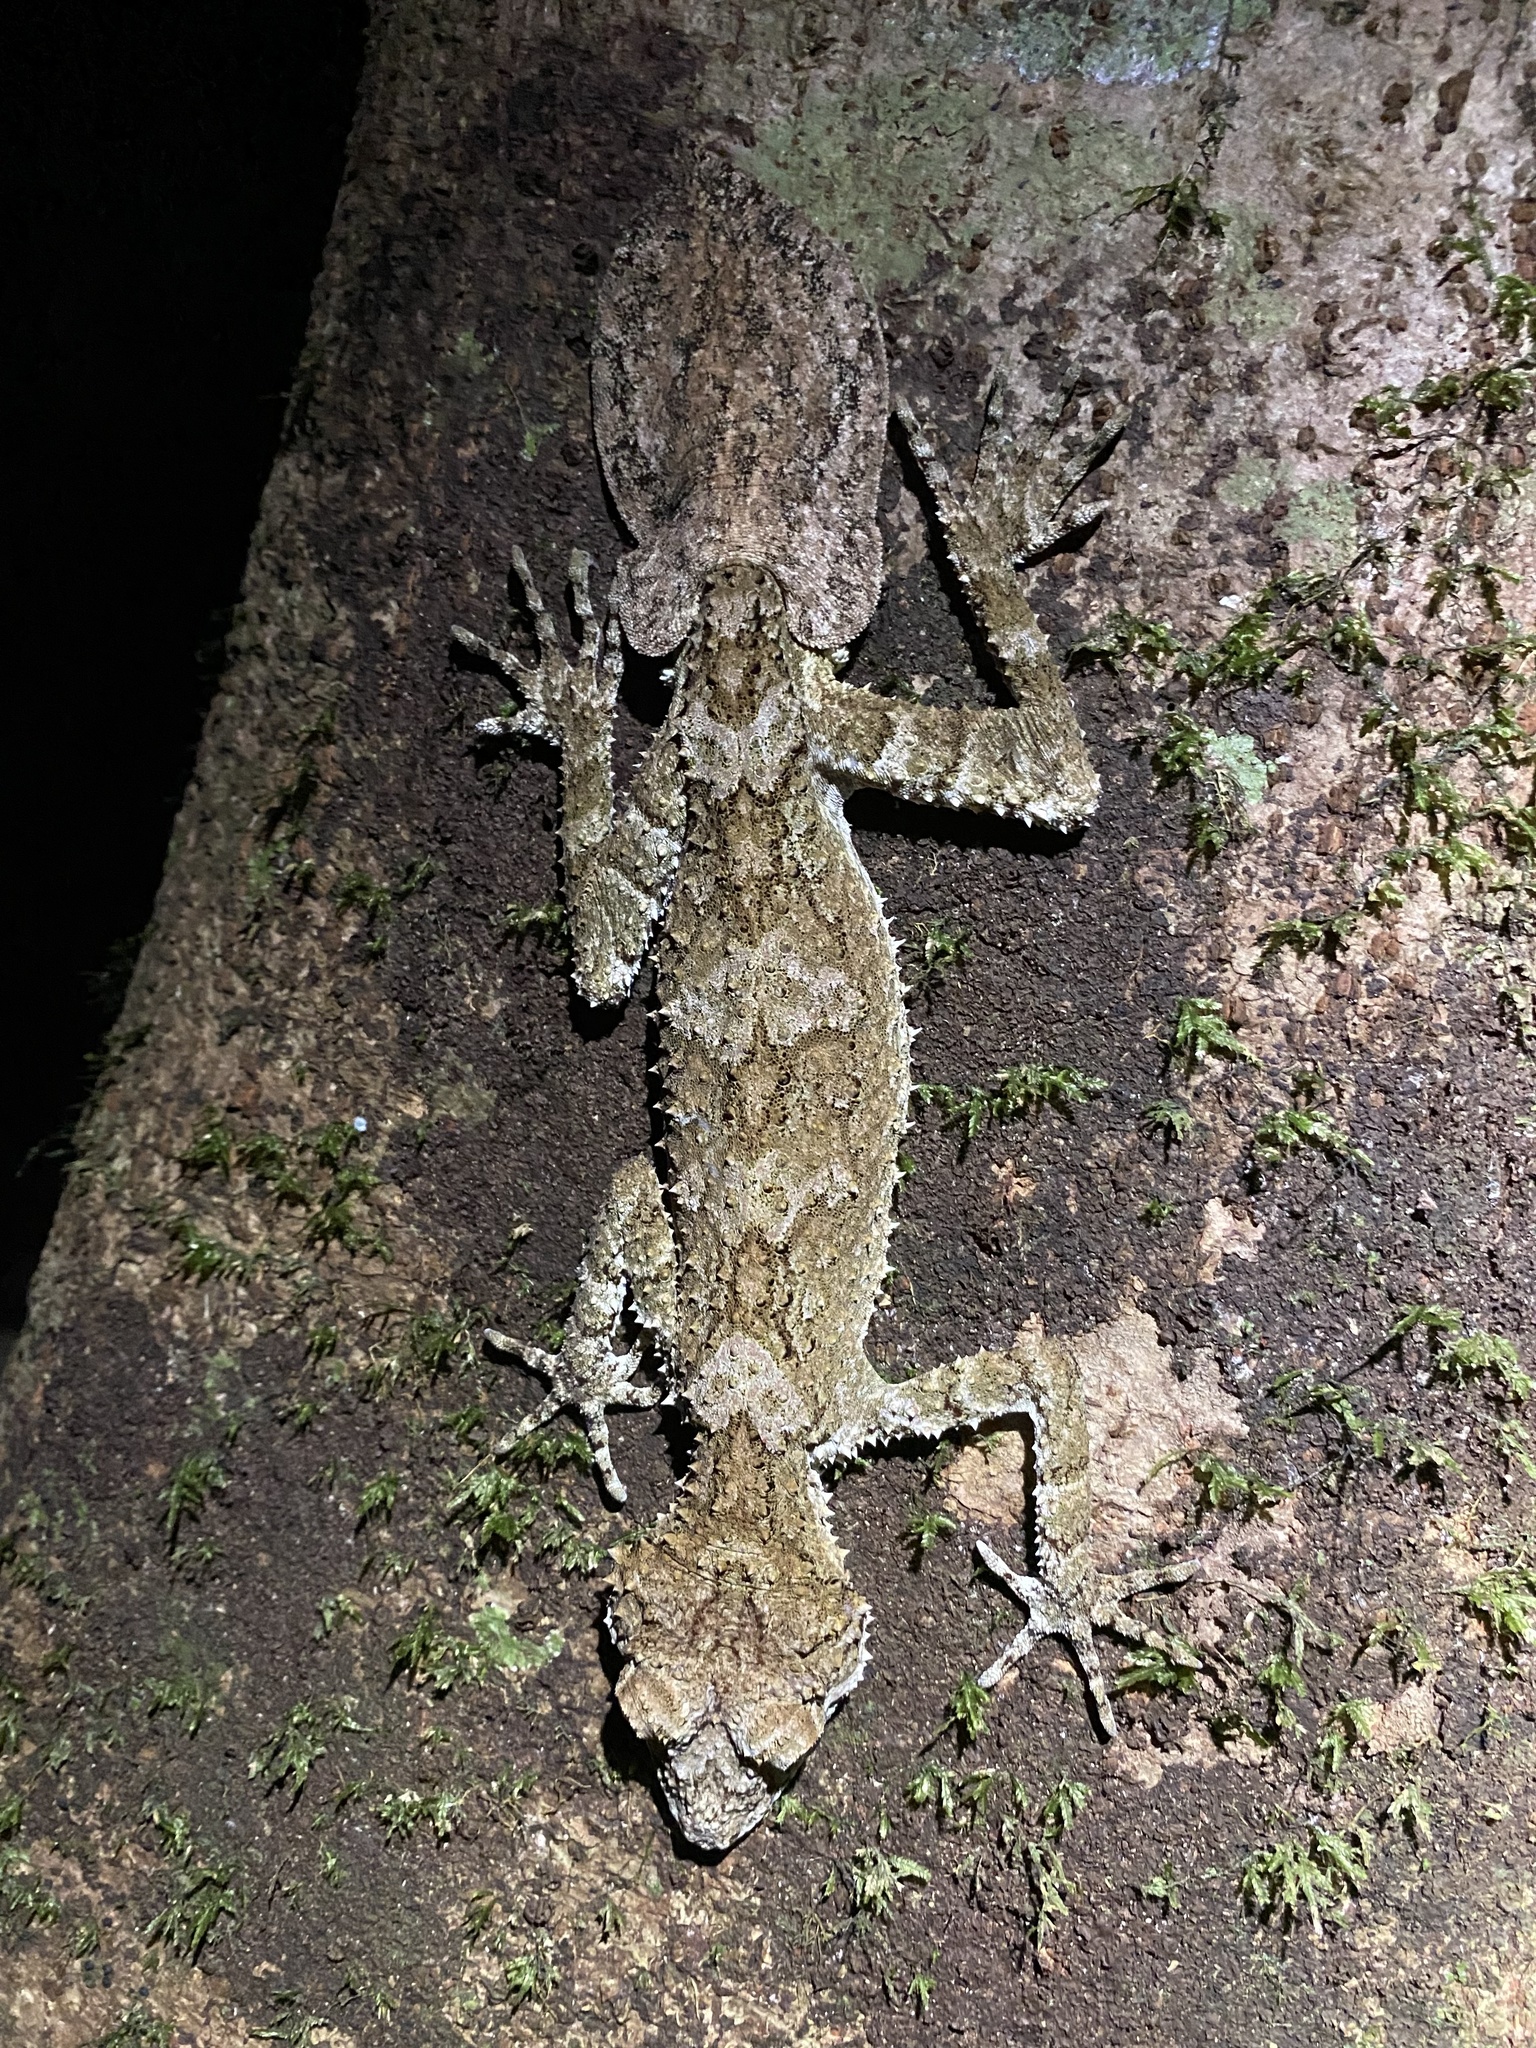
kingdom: Animalia
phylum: Chordata
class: Squamata
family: Carphodactylidae
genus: Saltuarius
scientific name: Saltuarius cornutus
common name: Leaf-tailed gecko
